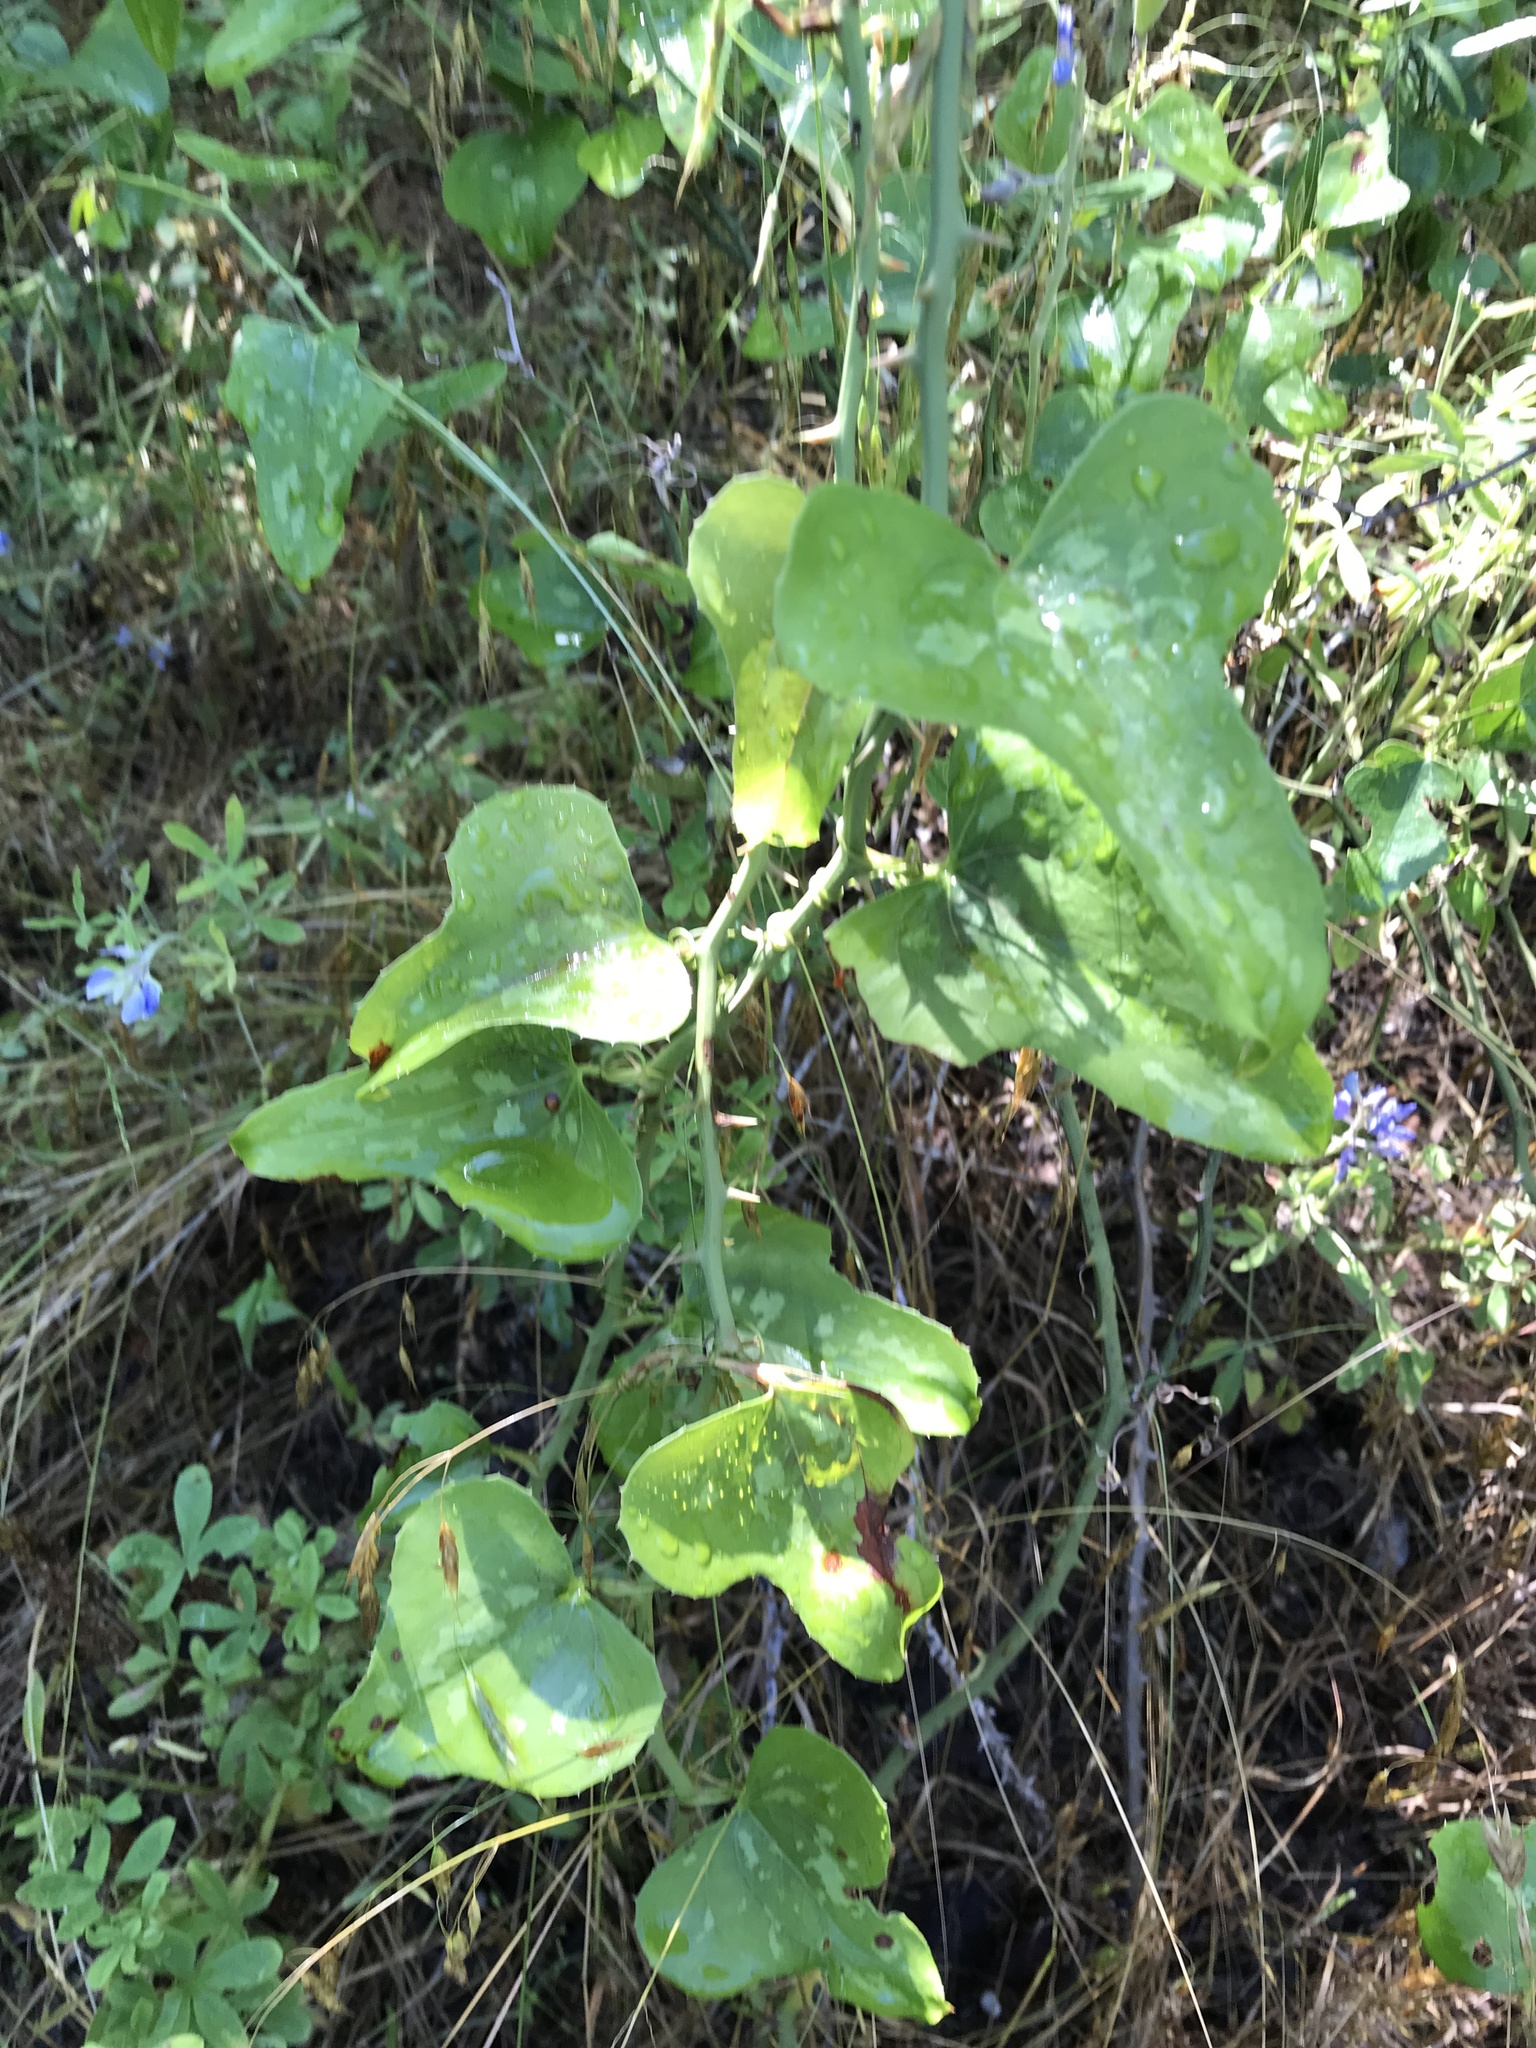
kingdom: Plantae
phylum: Tracheophyta
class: Liliopsida
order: Liliales
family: Smilacaceae
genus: Smilax
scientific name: Smilax bona-nox
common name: Catbrier
